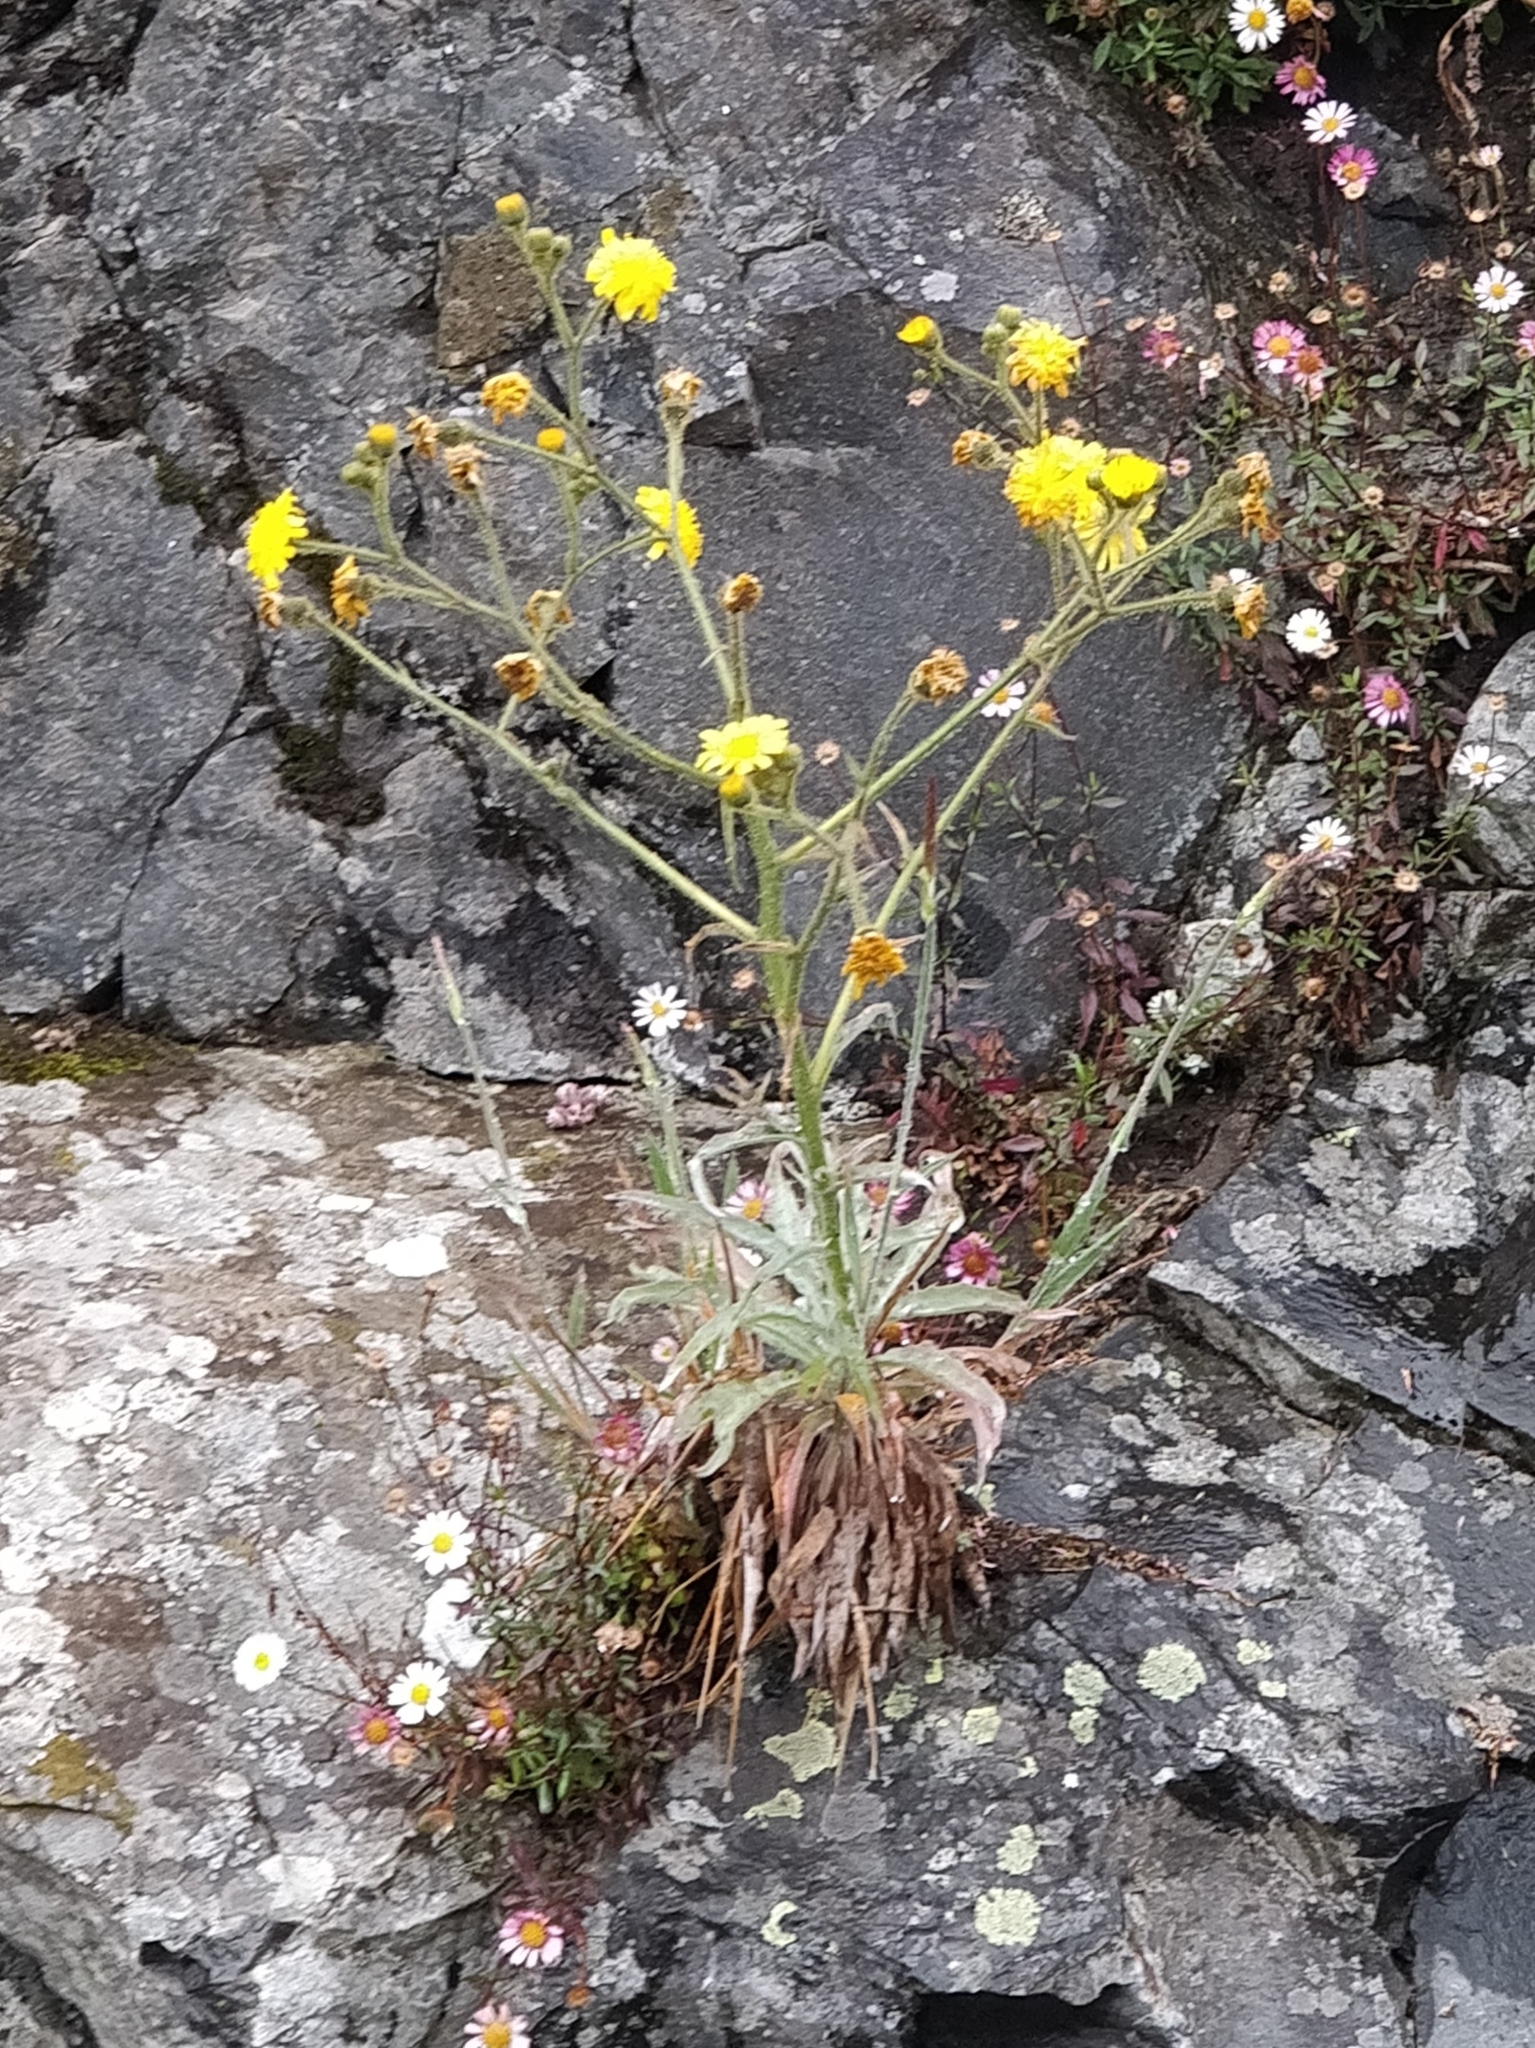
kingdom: Plantae
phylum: Tracheophyta
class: Magnoliopsida
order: Asterales
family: Asteraceae
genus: Andryala
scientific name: Andryala glandulosa
